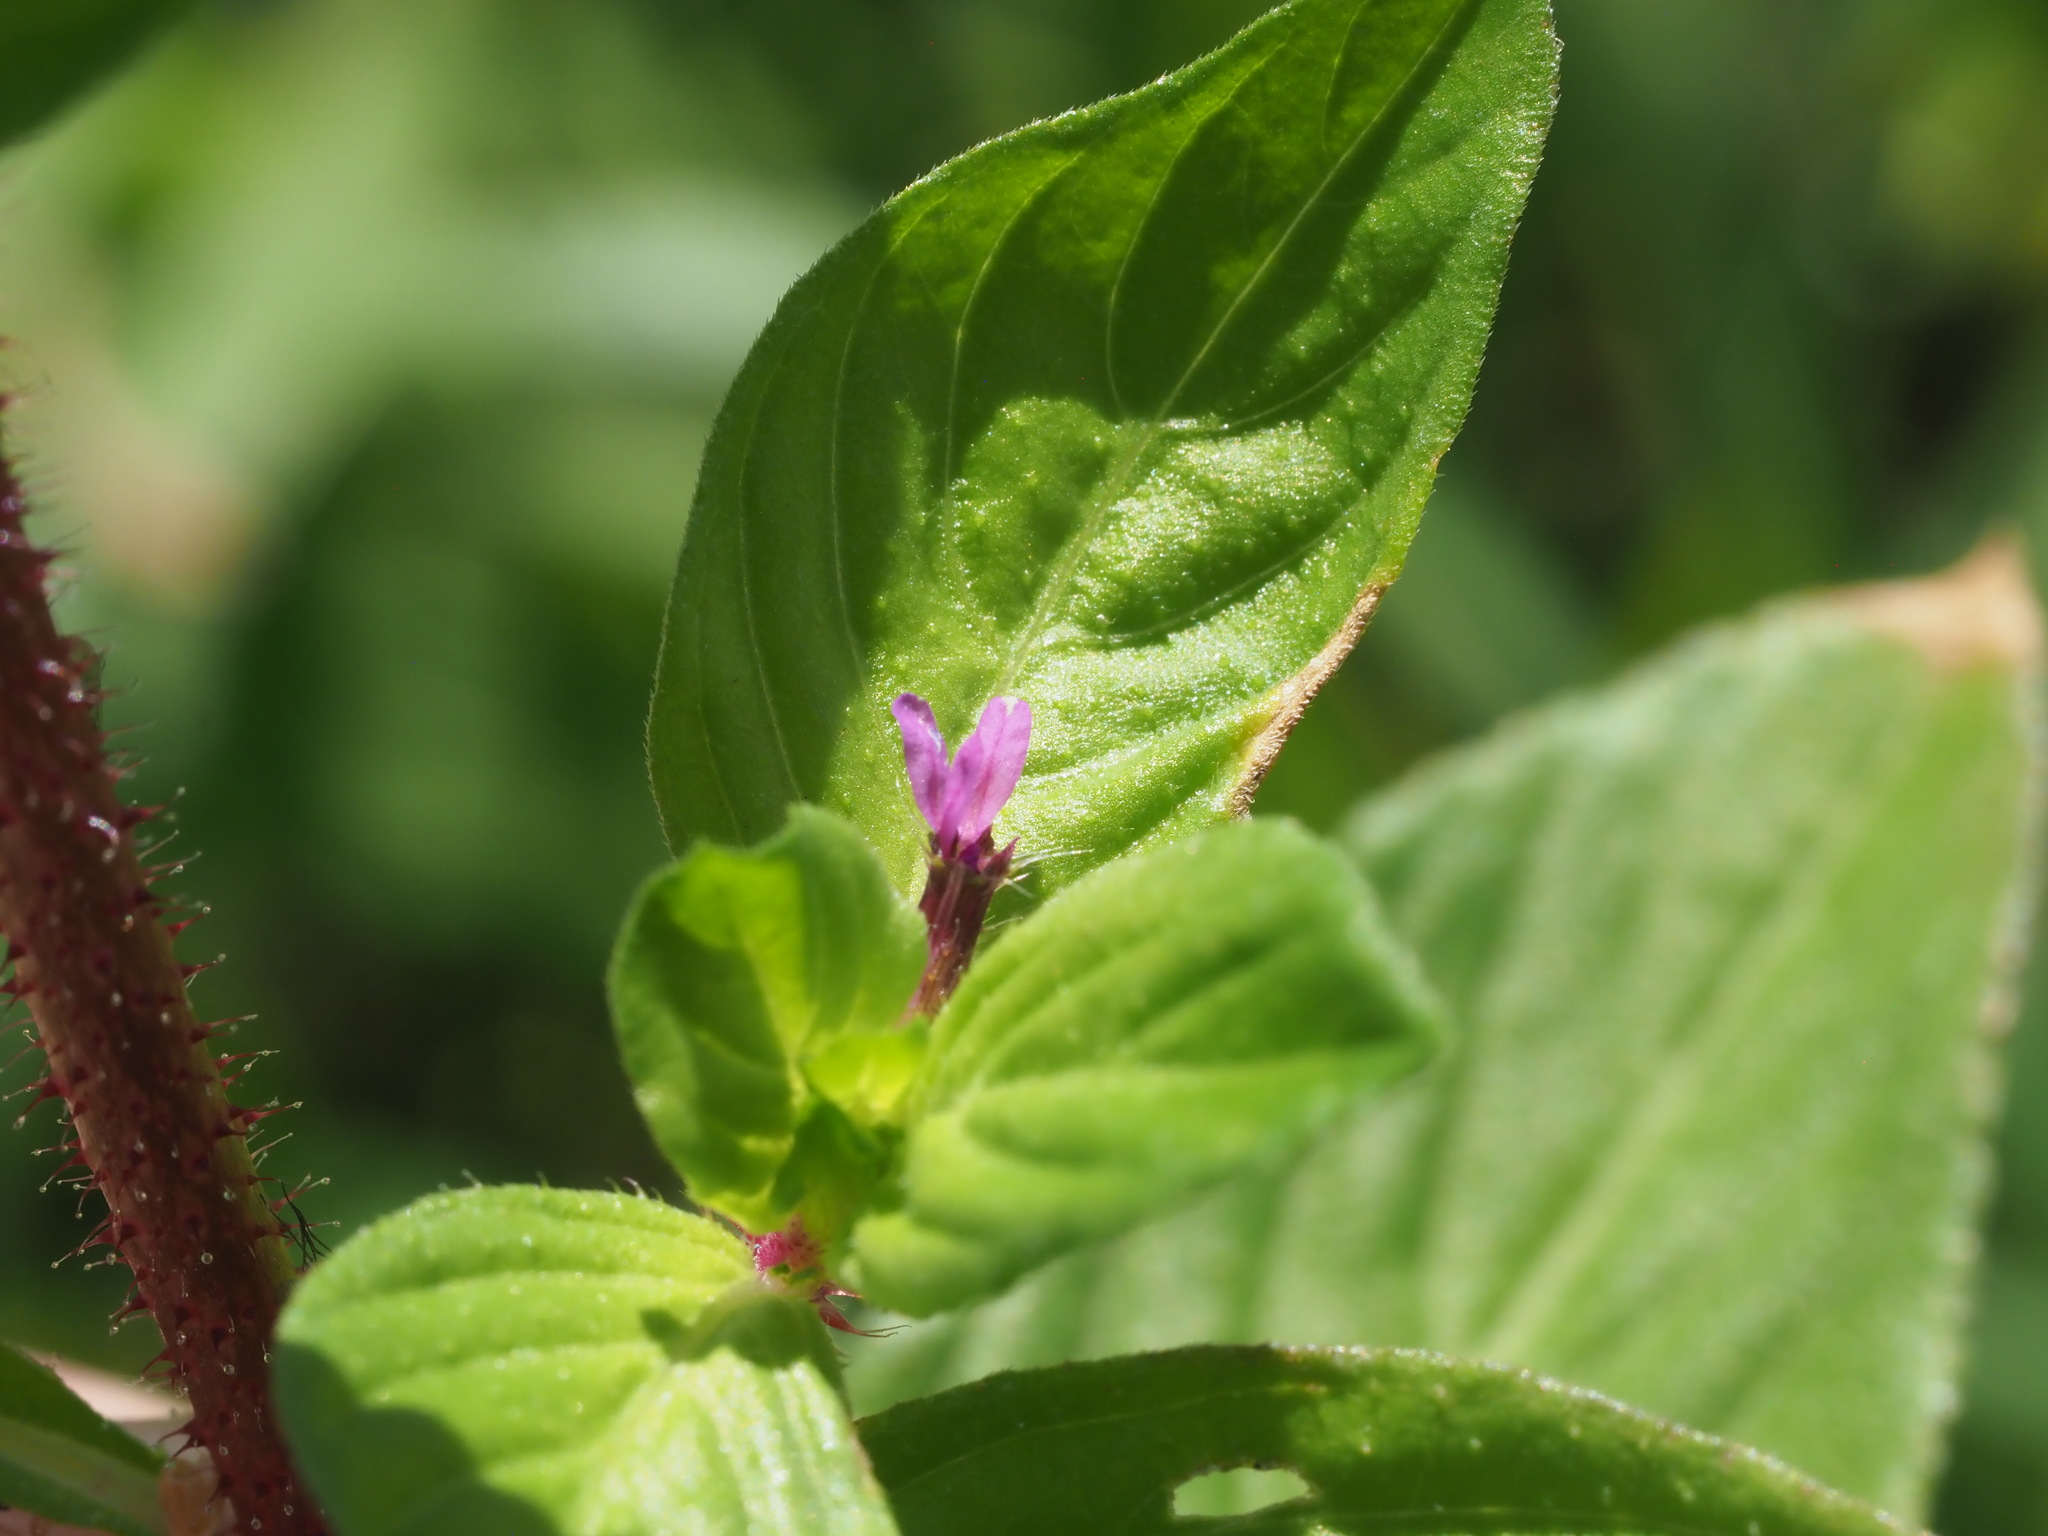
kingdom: Plantae
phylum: Tracheophyta
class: Magnoliopsida
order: Myrtales
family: Lythraceae
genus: Cuphea
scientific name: Cuphea carthagenensis
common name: Colombian waxweed
